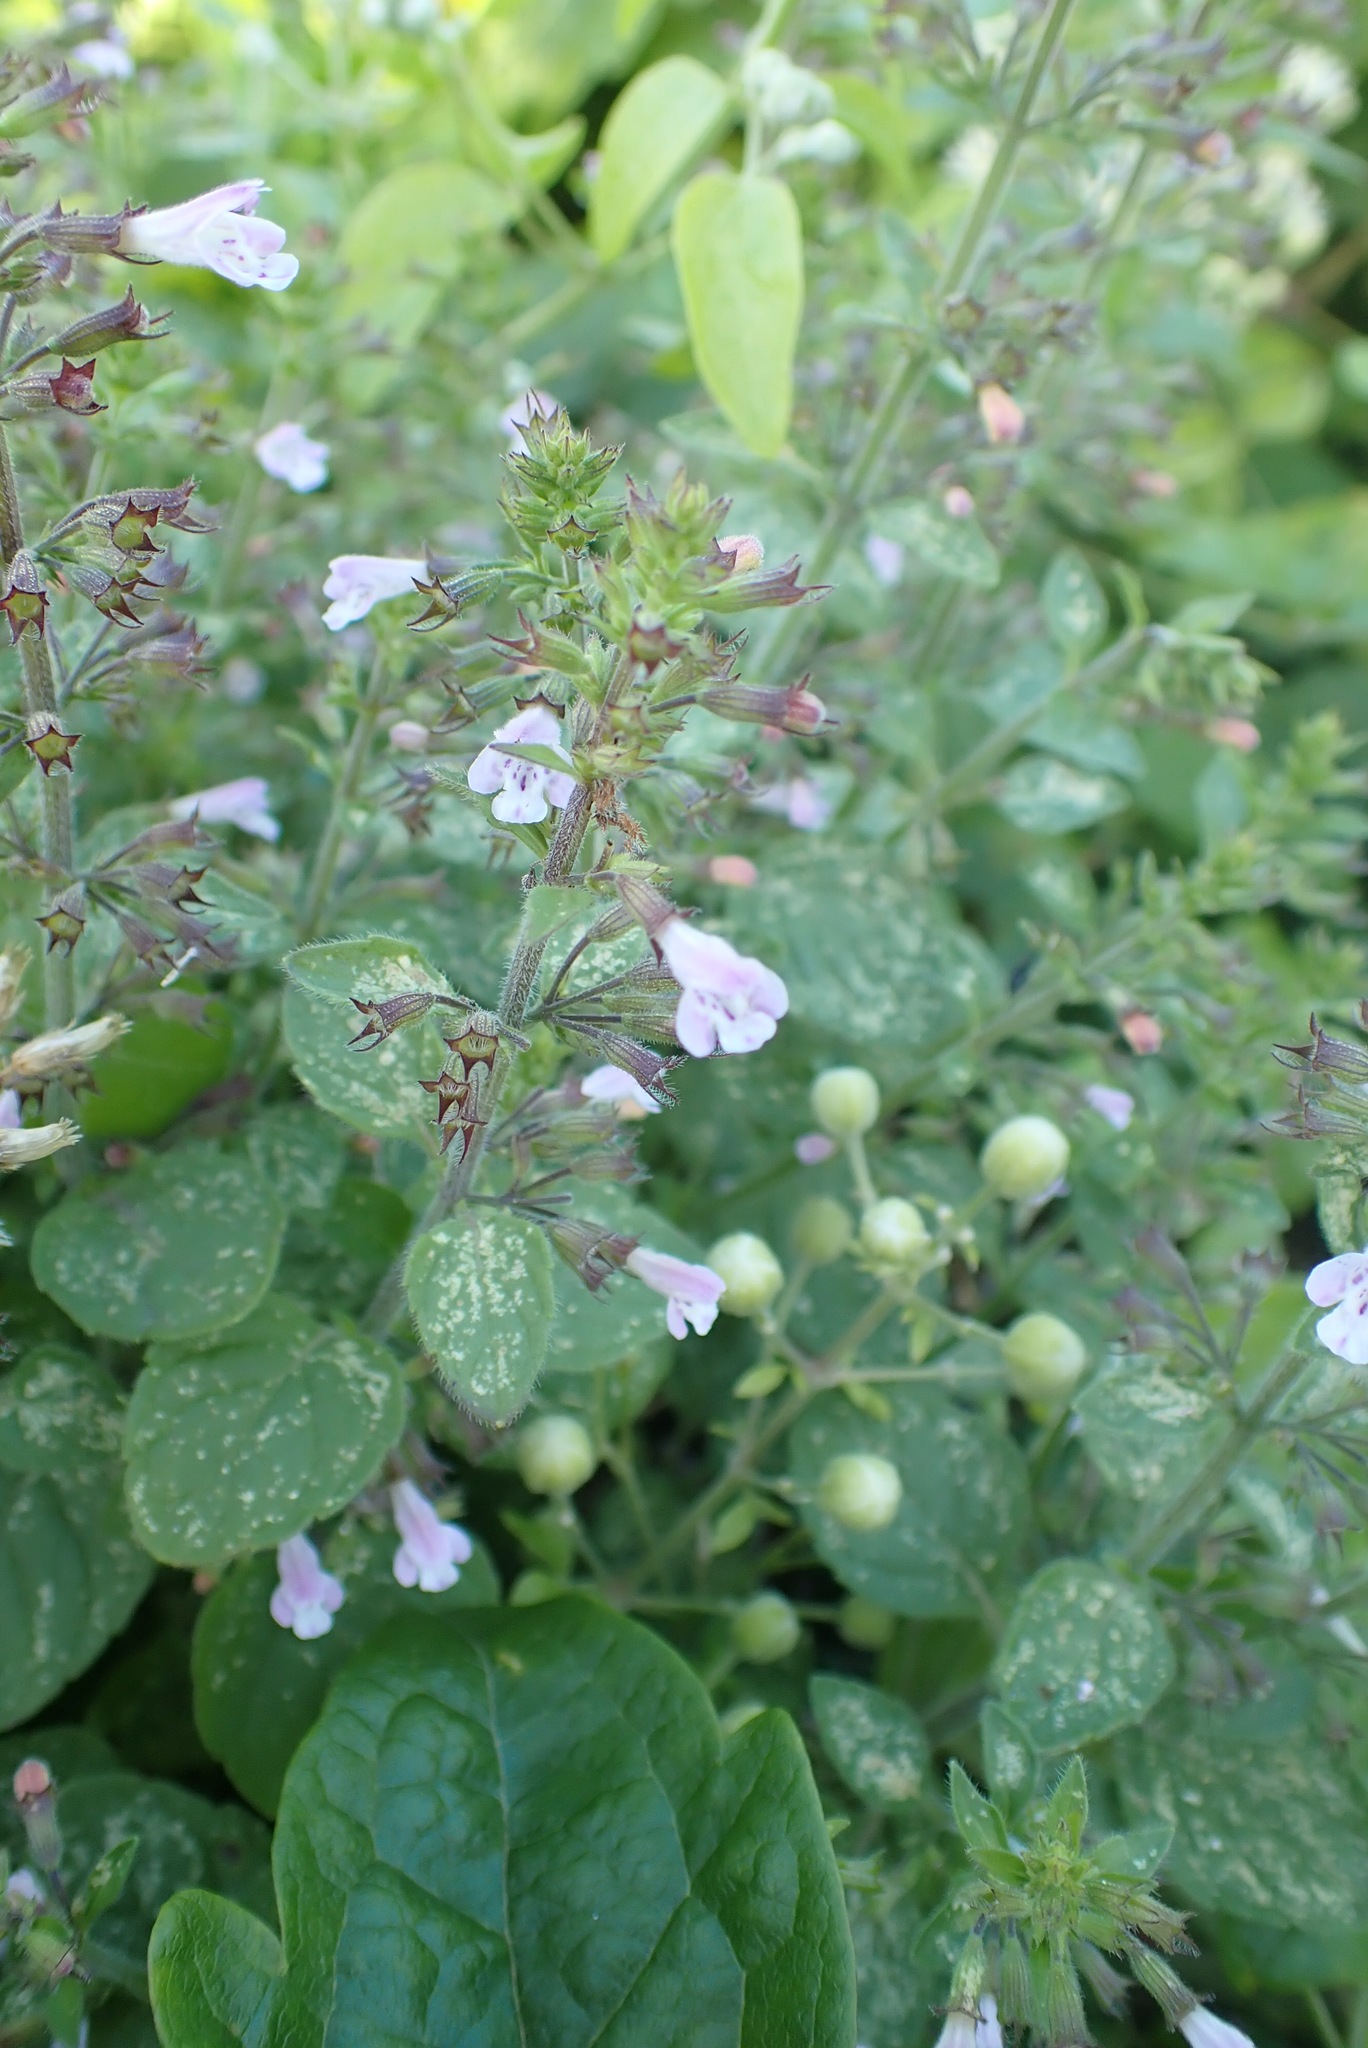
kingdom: Plantae
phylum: Tracheophyta
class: Magnoliopsida
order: Lamiales
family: Lamiaceae
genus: Clinopodium
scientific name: Clinopodium menthifolium
